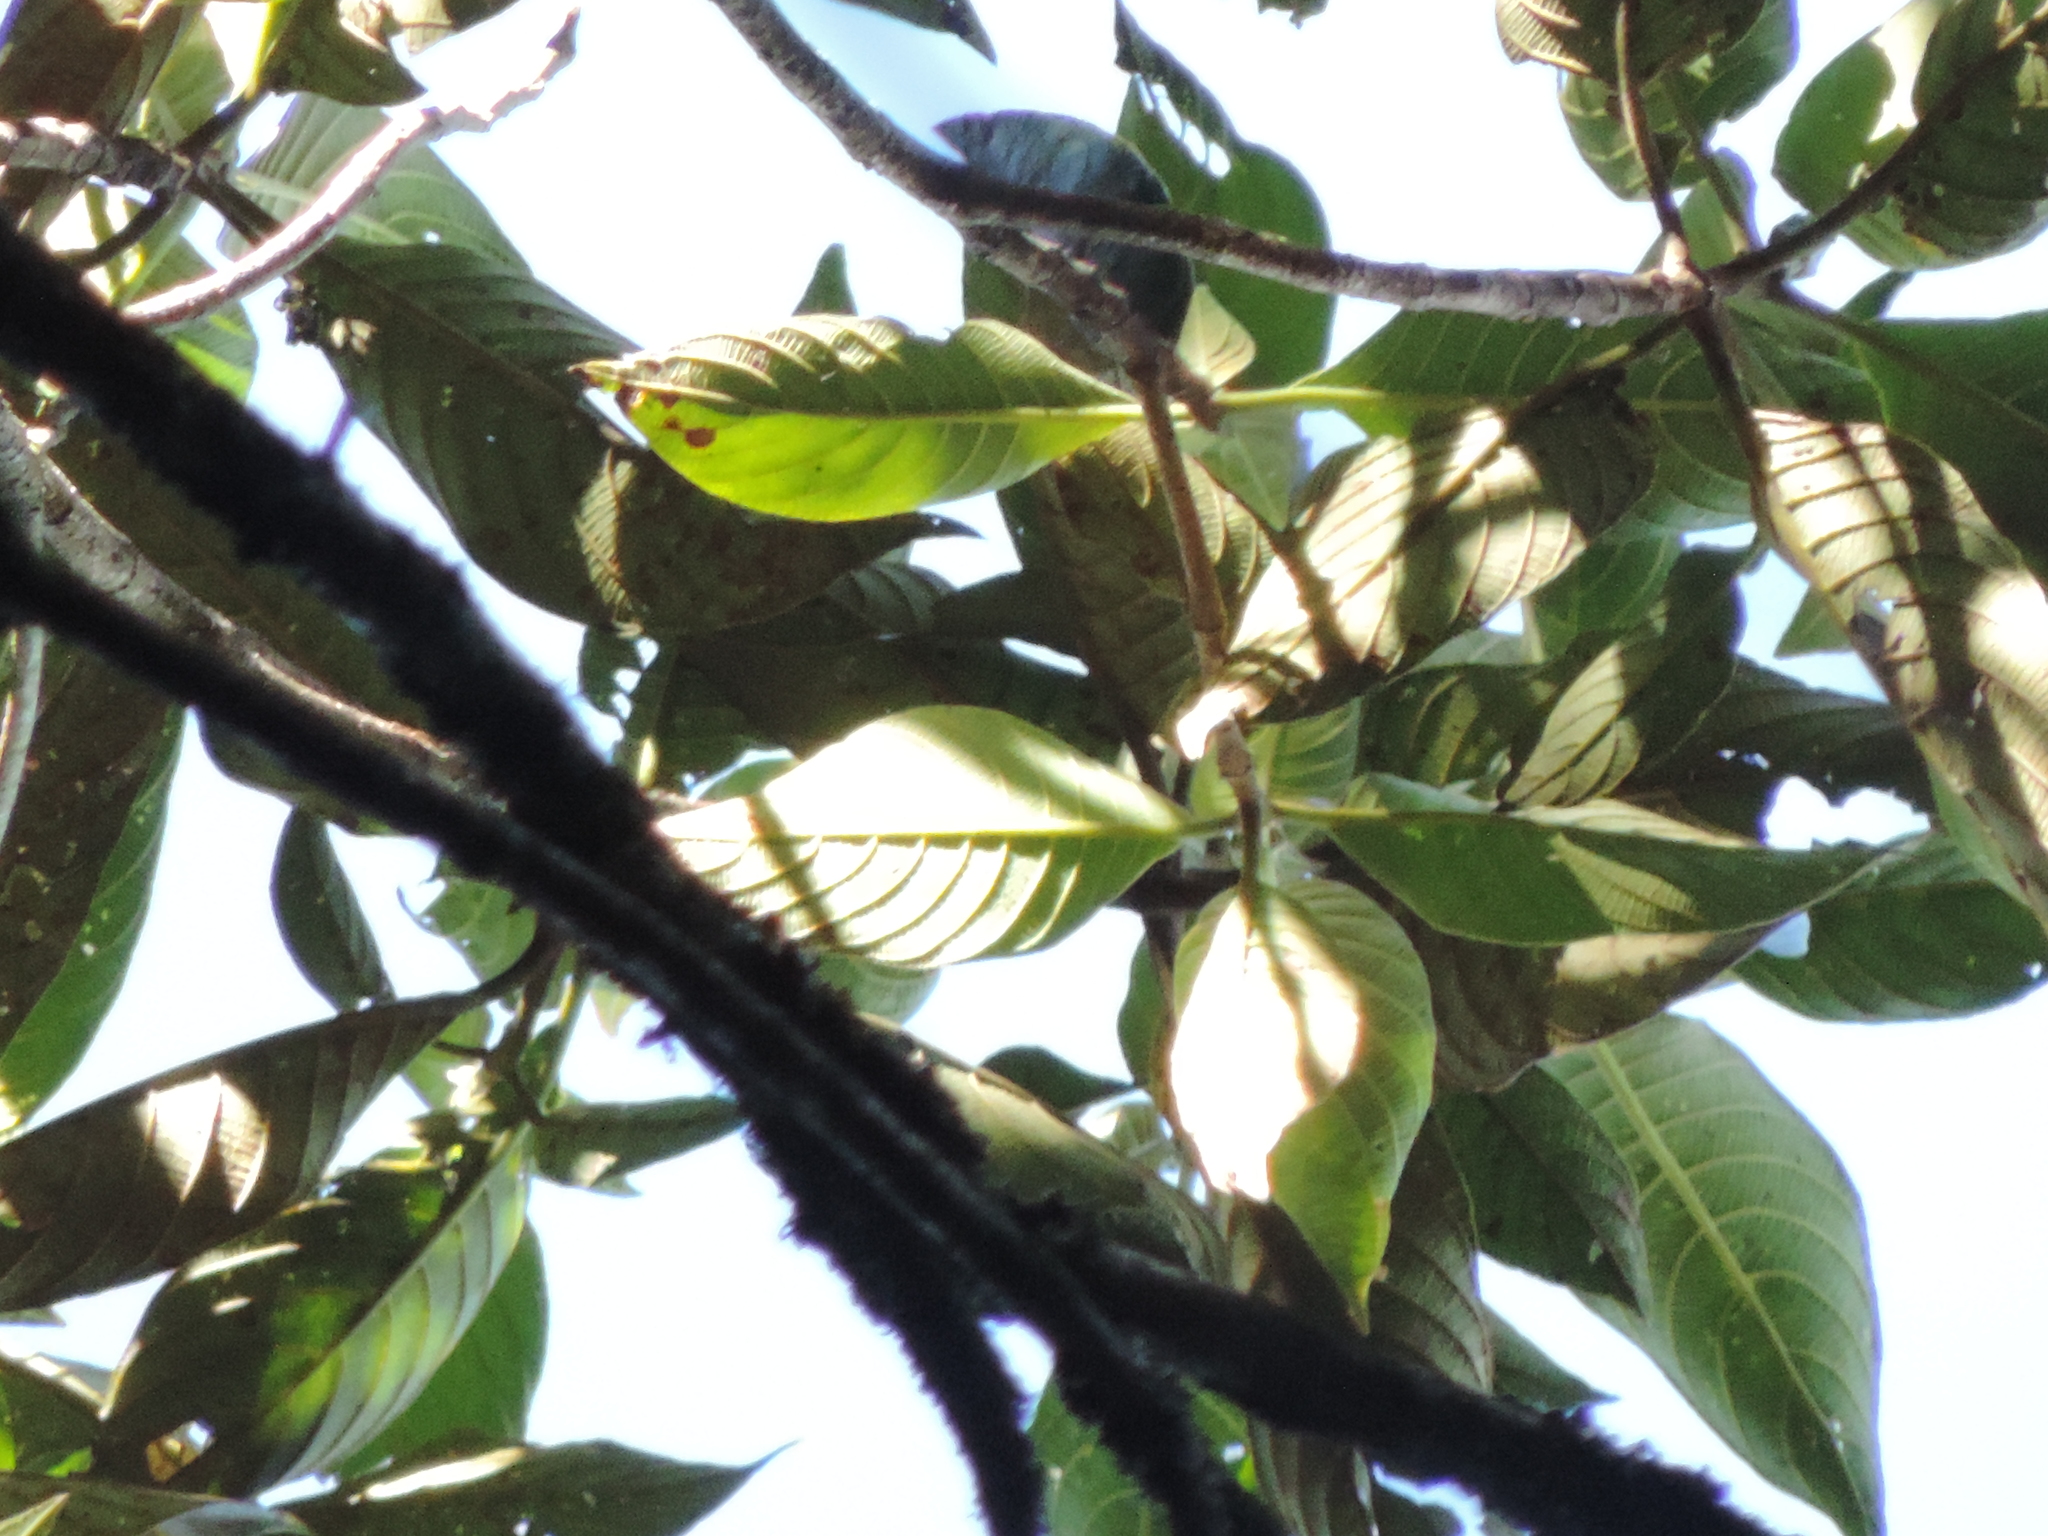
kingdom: Plantae
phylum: Tracheophyta
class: Magnoliopsida
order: Gentianales
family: Rubiaceae
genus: Guettarda
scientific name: Guettarda dependens
